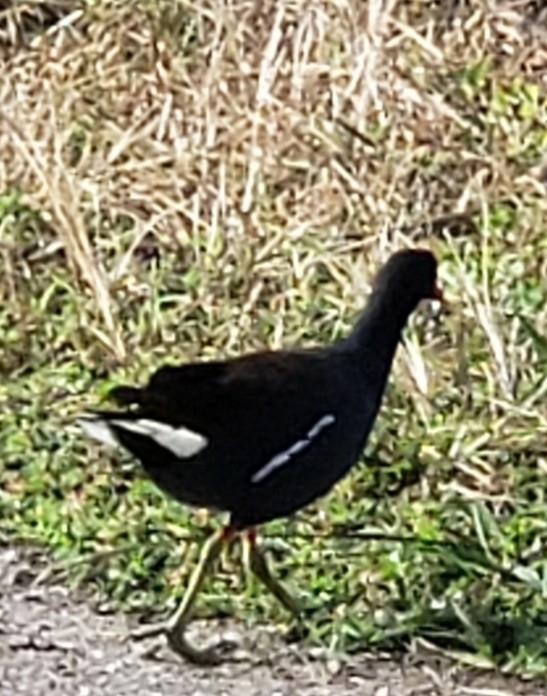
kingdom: Animalia
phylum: Chordata
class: Aves
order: Gruiformes
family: Rallidae
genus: Gallinula
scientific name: Gallinula chloropus
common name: Common moorhen
